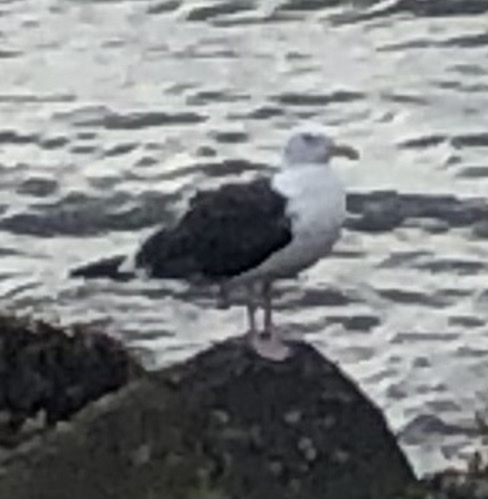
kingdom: Animalia
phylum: Chordata
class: Aves
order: Charadriiformes
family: Laridae
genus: Larus
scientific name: Larus marinus
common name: Great black-backed gull
